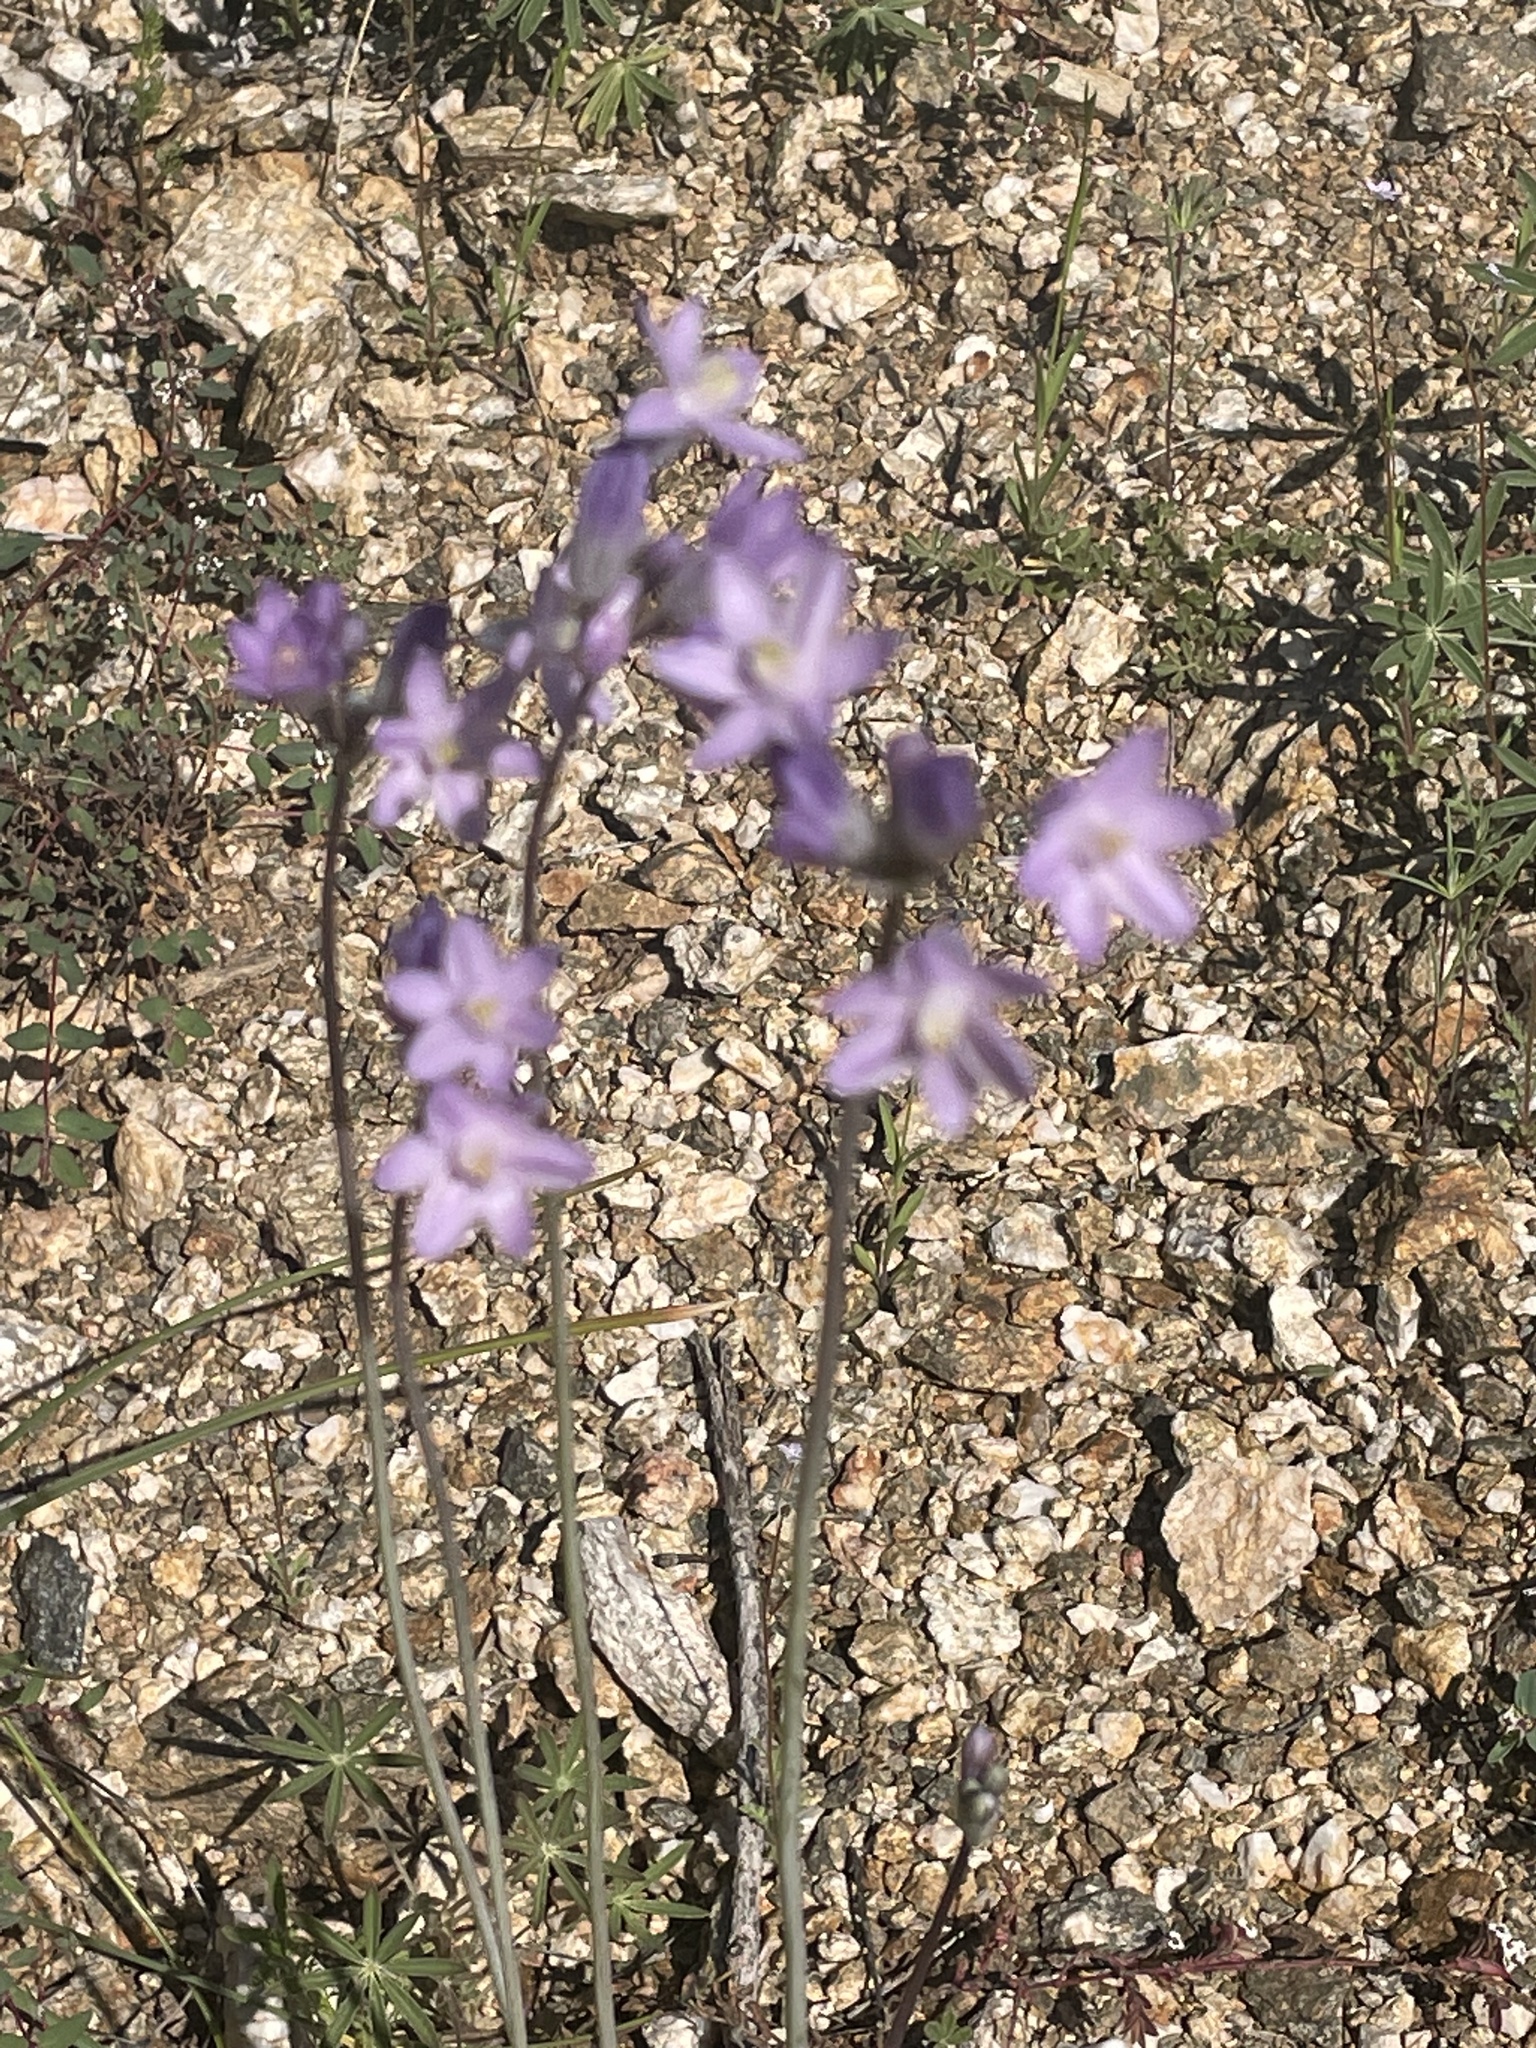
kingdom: Plantae
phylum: Tracheophyta
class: Liliopsida
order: Asparagales
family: Asparagaceae
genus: Dipterostemon
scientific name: Dipterostemon capitatus
